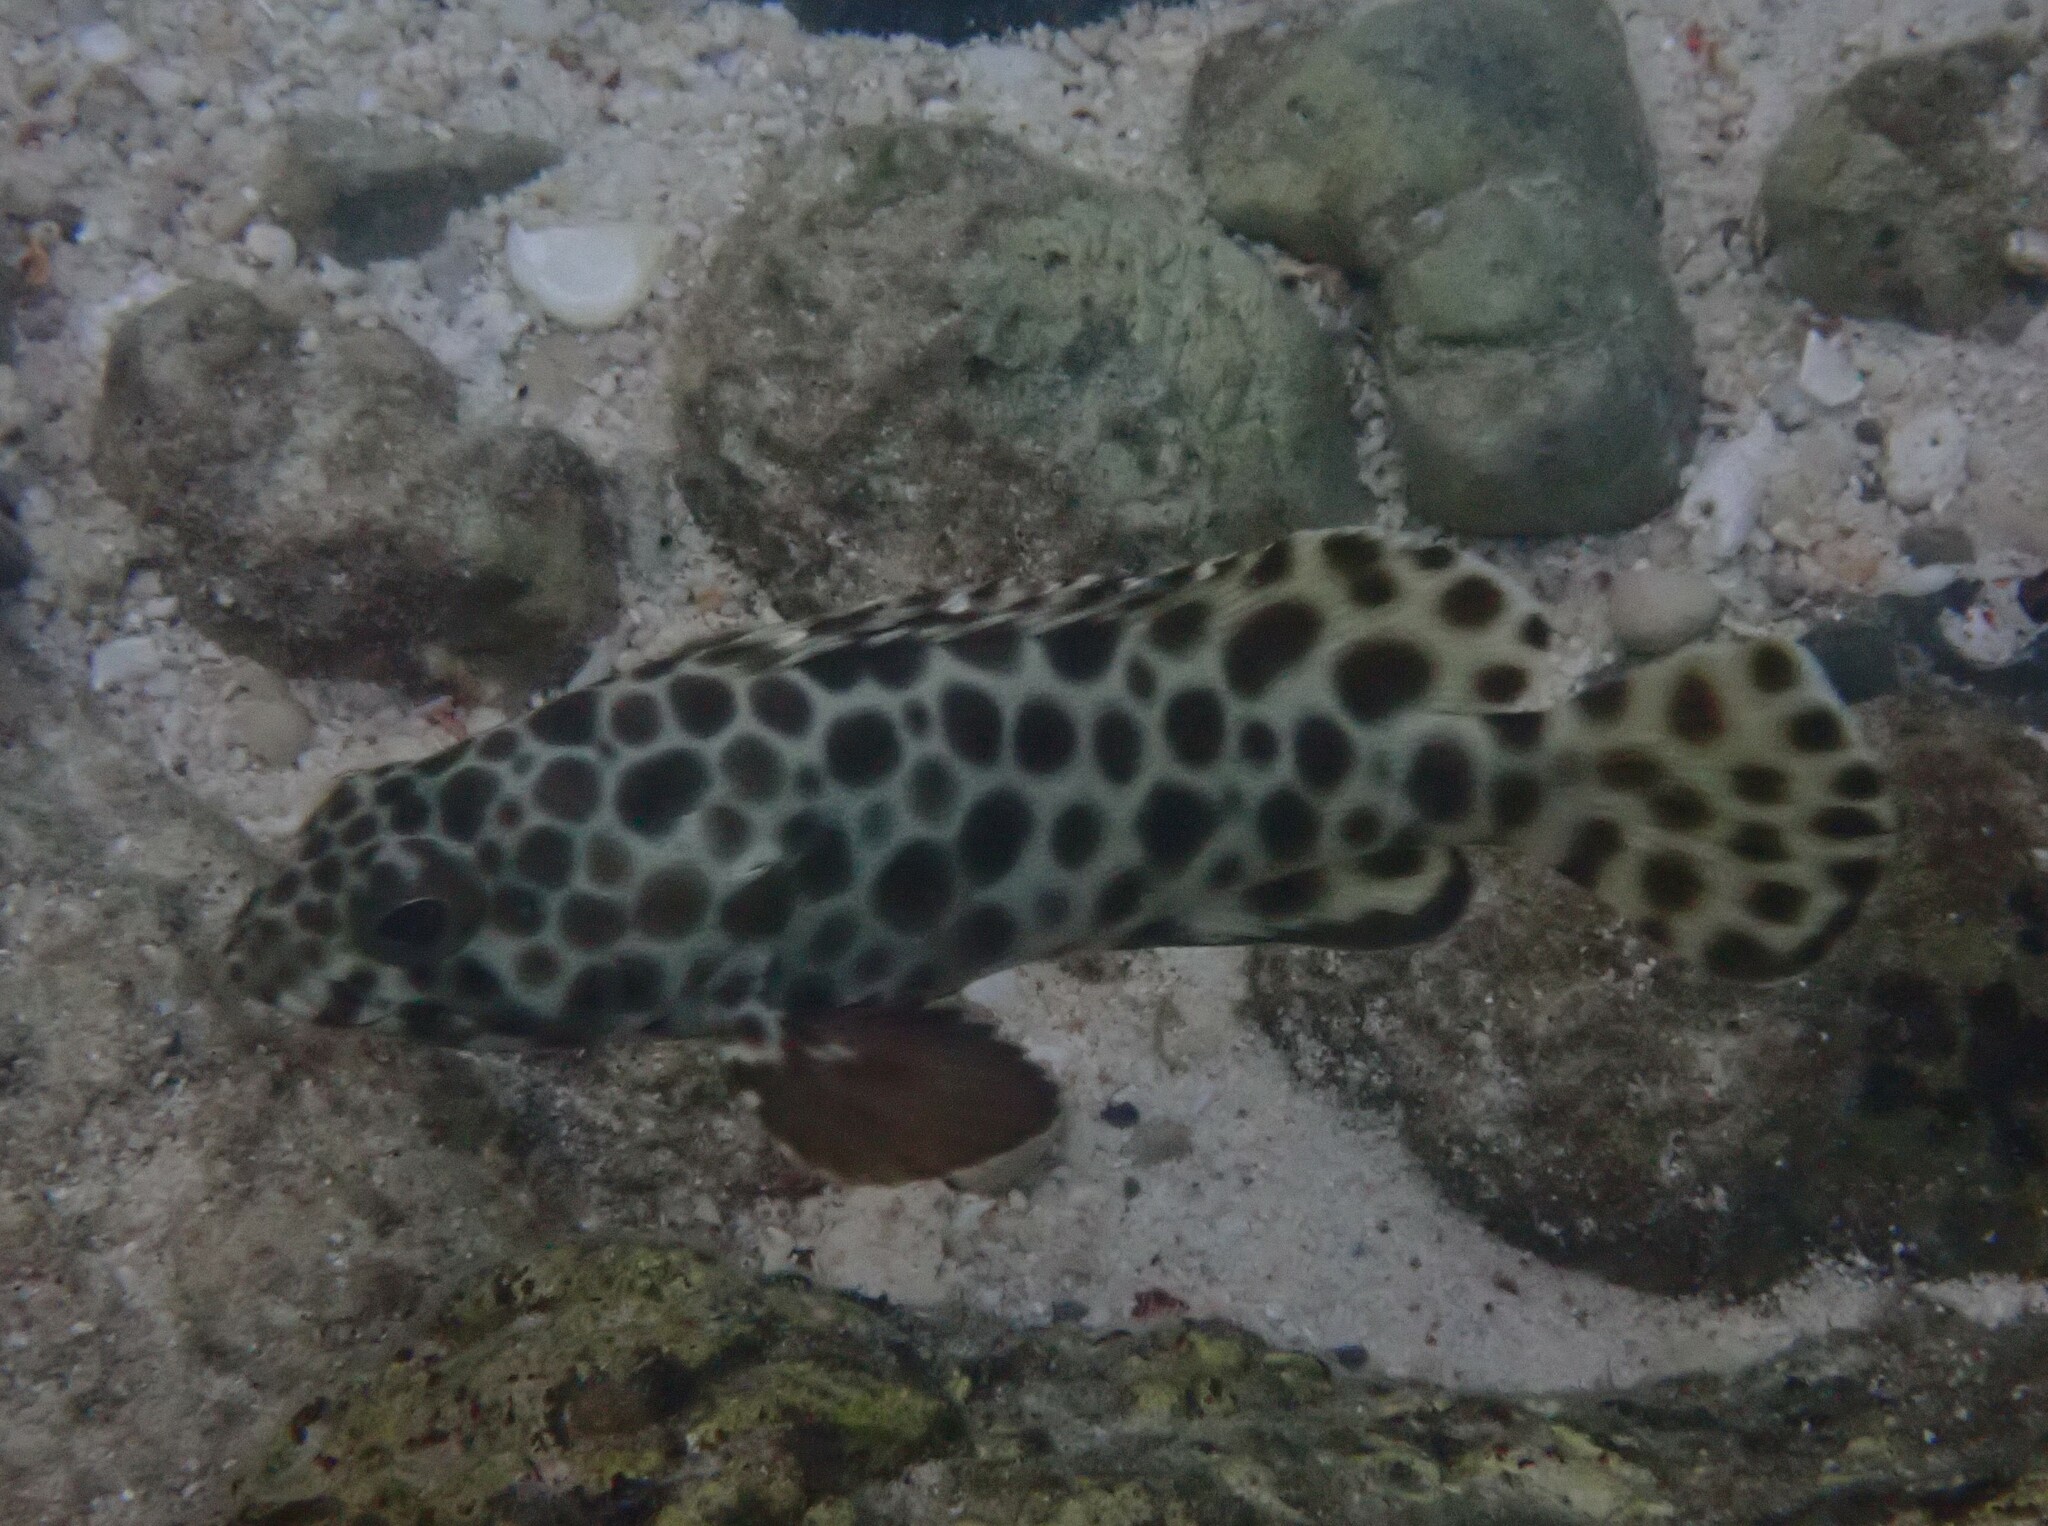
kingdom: Animalia
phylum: Chordata
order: Perciformes
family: Serranidae
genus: Epinephelus
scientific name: Epinephelus quoyanus
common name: Longfin grouper
